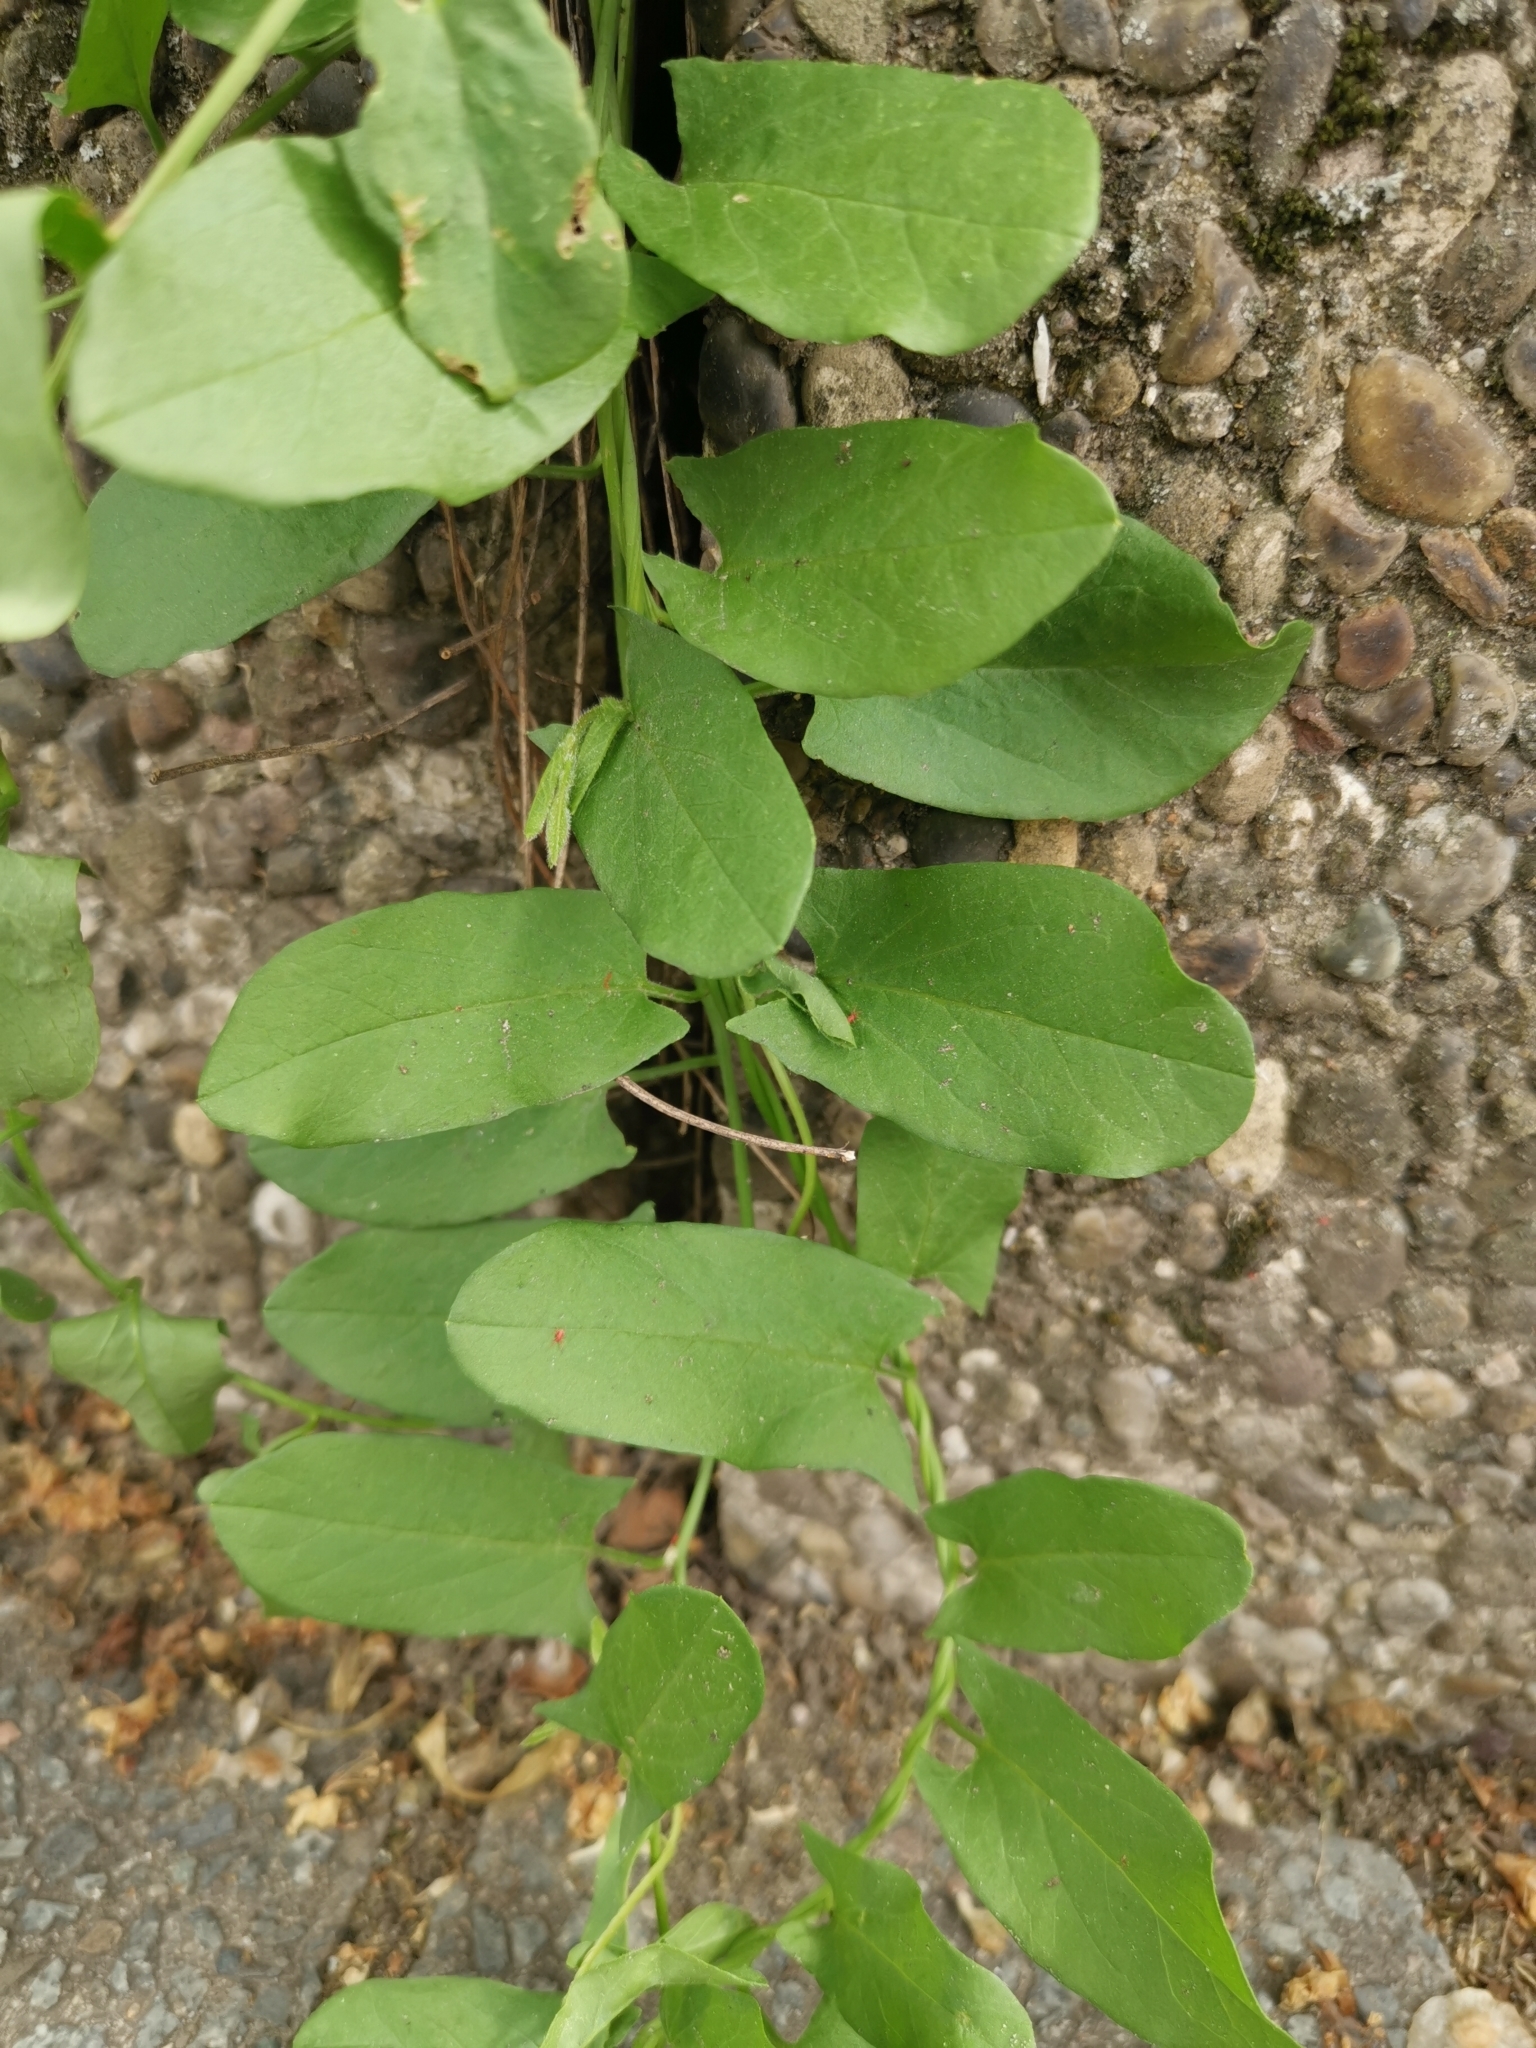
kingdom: Plantae
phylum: Tracheophyta
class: Magnoliopsida
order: Solanales
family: Convolvulaceae
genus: Convolvulus
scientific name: Convolvulus arvensis
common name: Field bindweed
